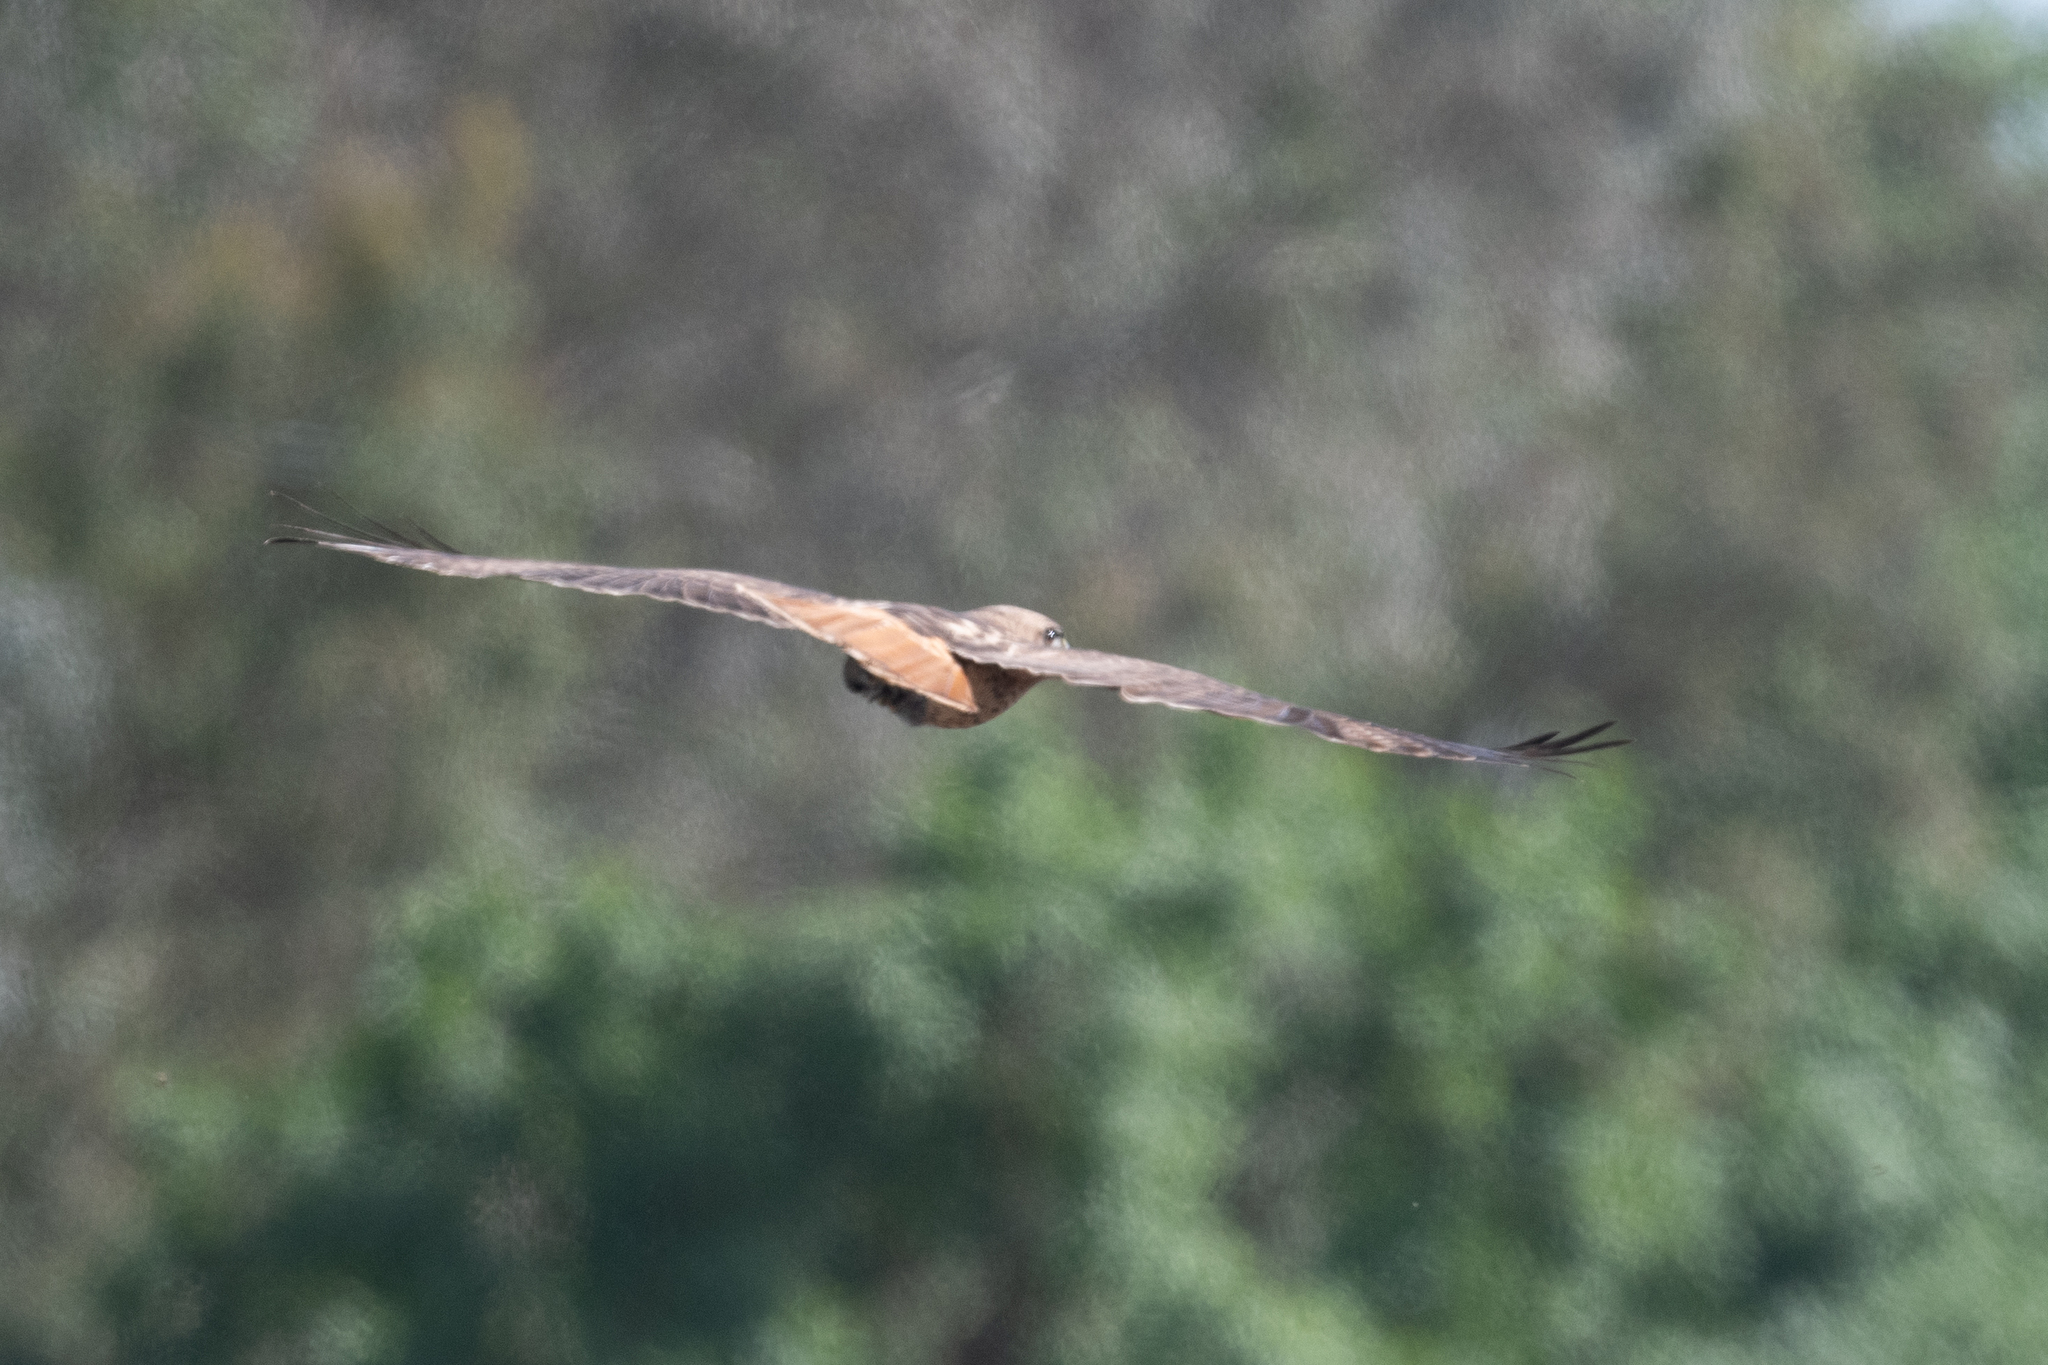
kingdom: Animalia
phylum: Chordata
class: Aves
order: Accipitriformes
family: Accipitridae
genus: Buteo
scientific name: Buteo jamaicensis
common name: Red-tailed hawk
